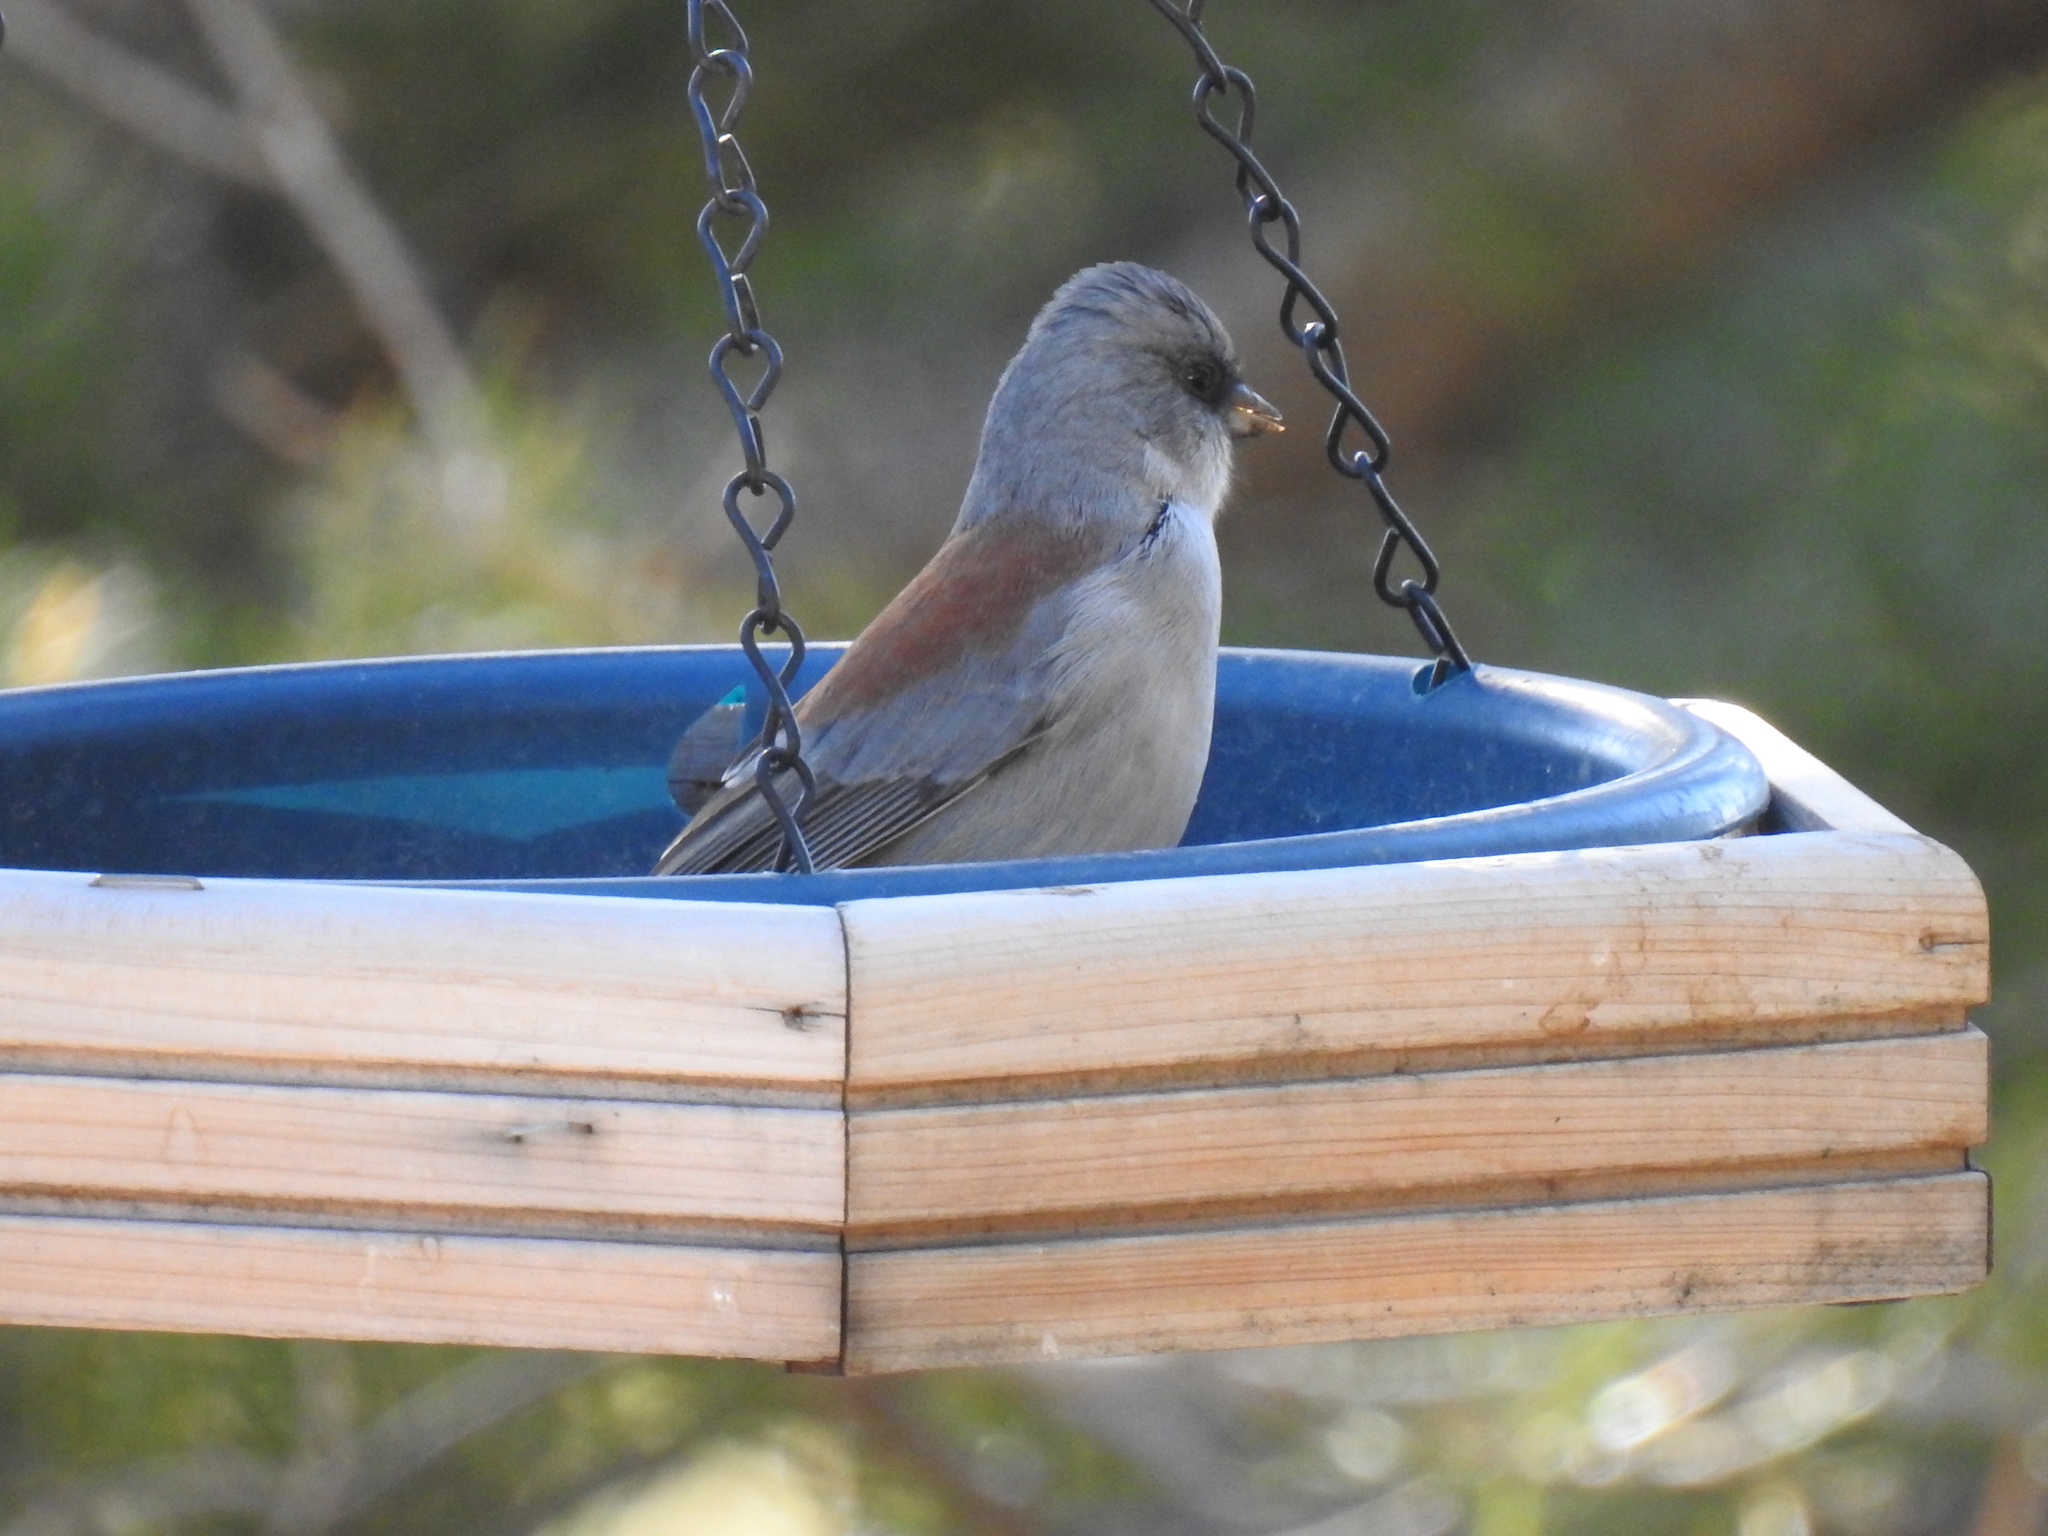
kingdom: Animalia
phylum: Chordata
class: Aves
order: Passeriformes
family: Passerellidae
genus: Junco
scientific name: Junco hyemalis
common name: Dark-eyed junco
